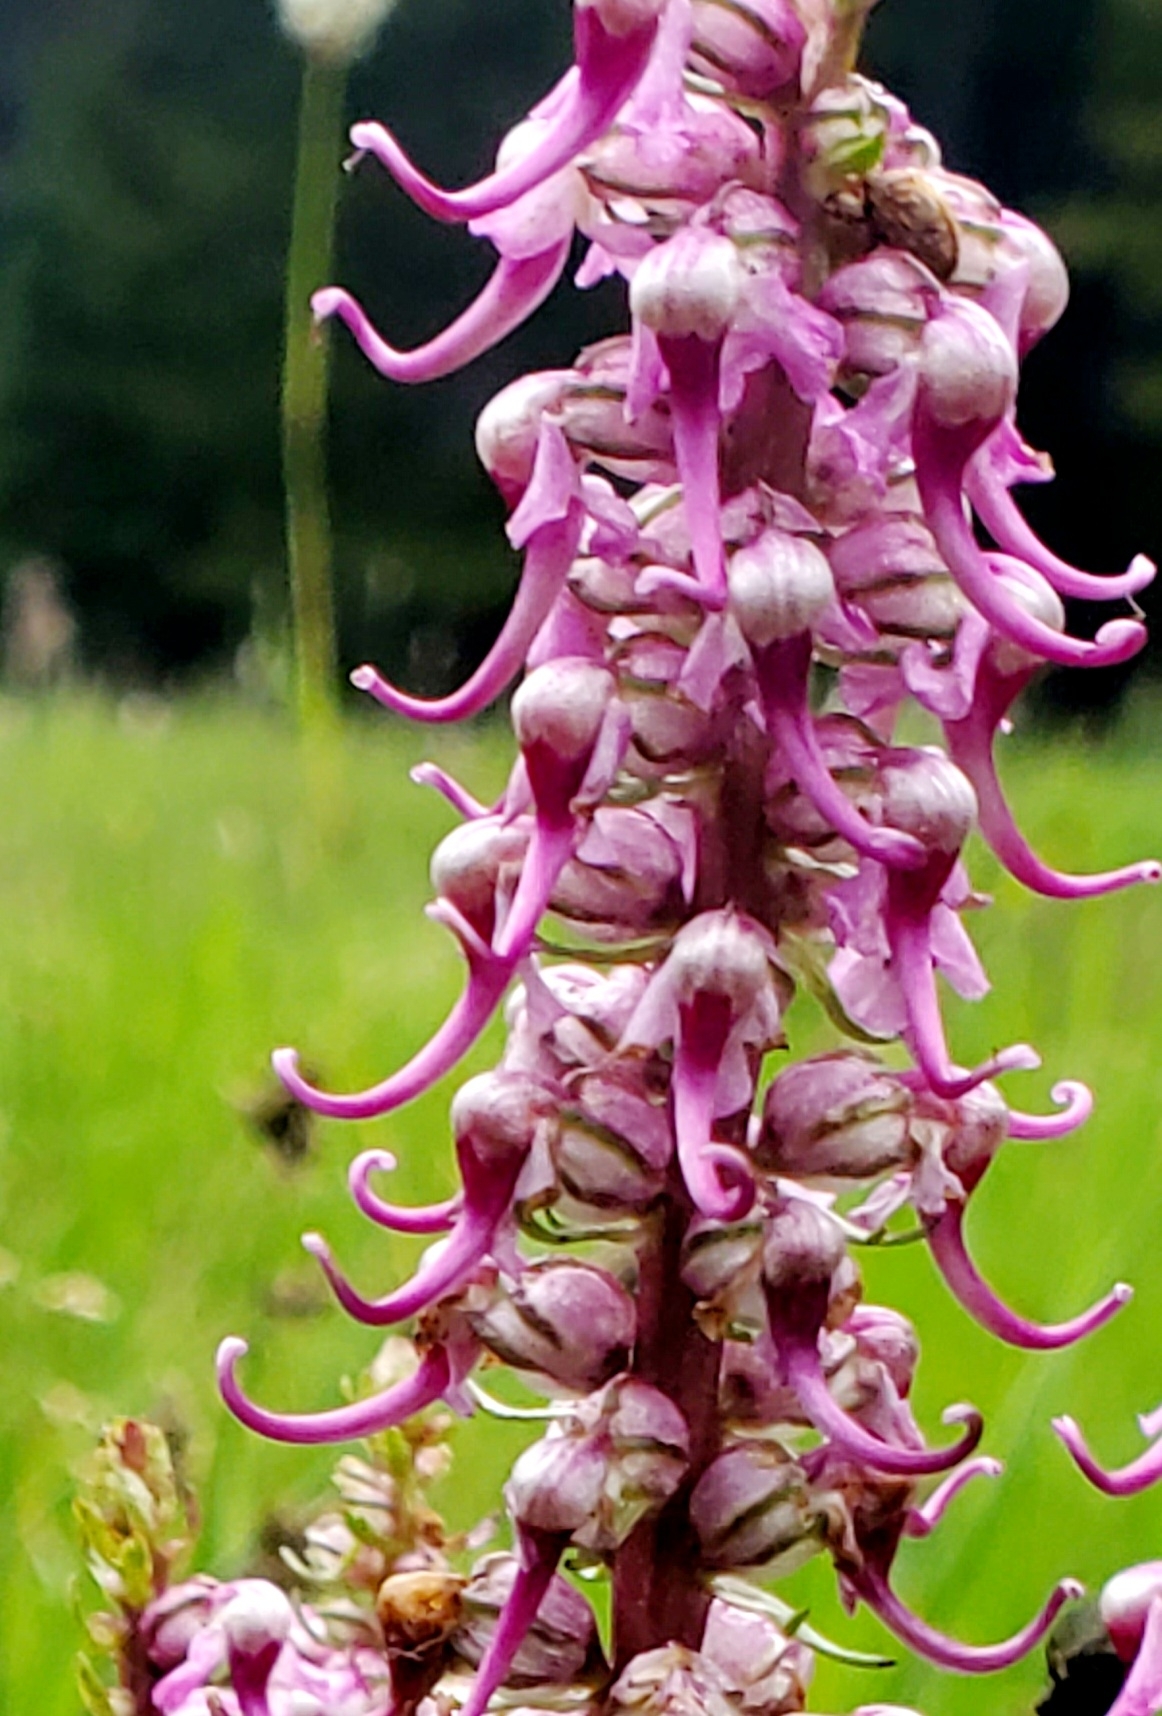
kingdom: Plantae
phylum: Tracheophyta
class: Magnoliopsida
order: Lamiales
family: Orobanchaceae
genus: Pedicularis
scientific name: Pedicularis groenlandica
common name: Elephant's-head
